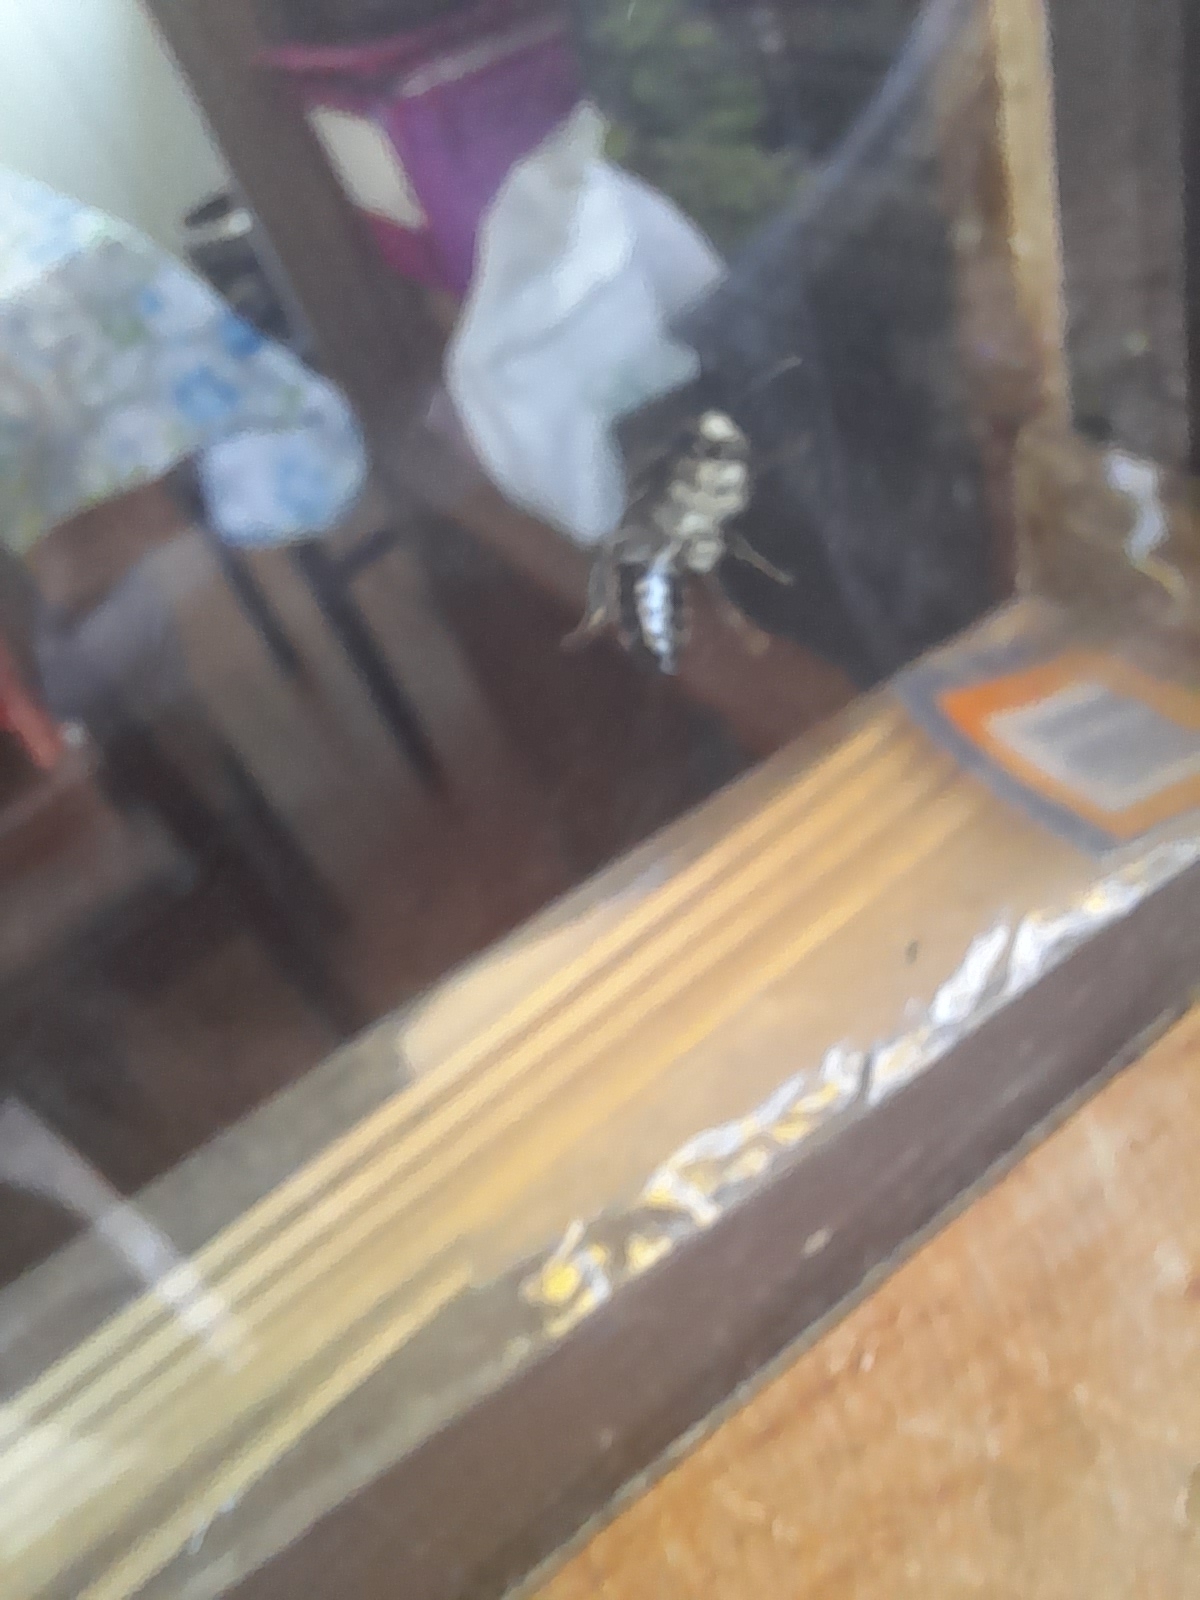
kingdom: Animalia
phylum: Arthropoda
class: Insecta
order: Hymenoptera
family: Colletidae
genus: Cadeguala
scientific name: Cadeguala albopilosa
